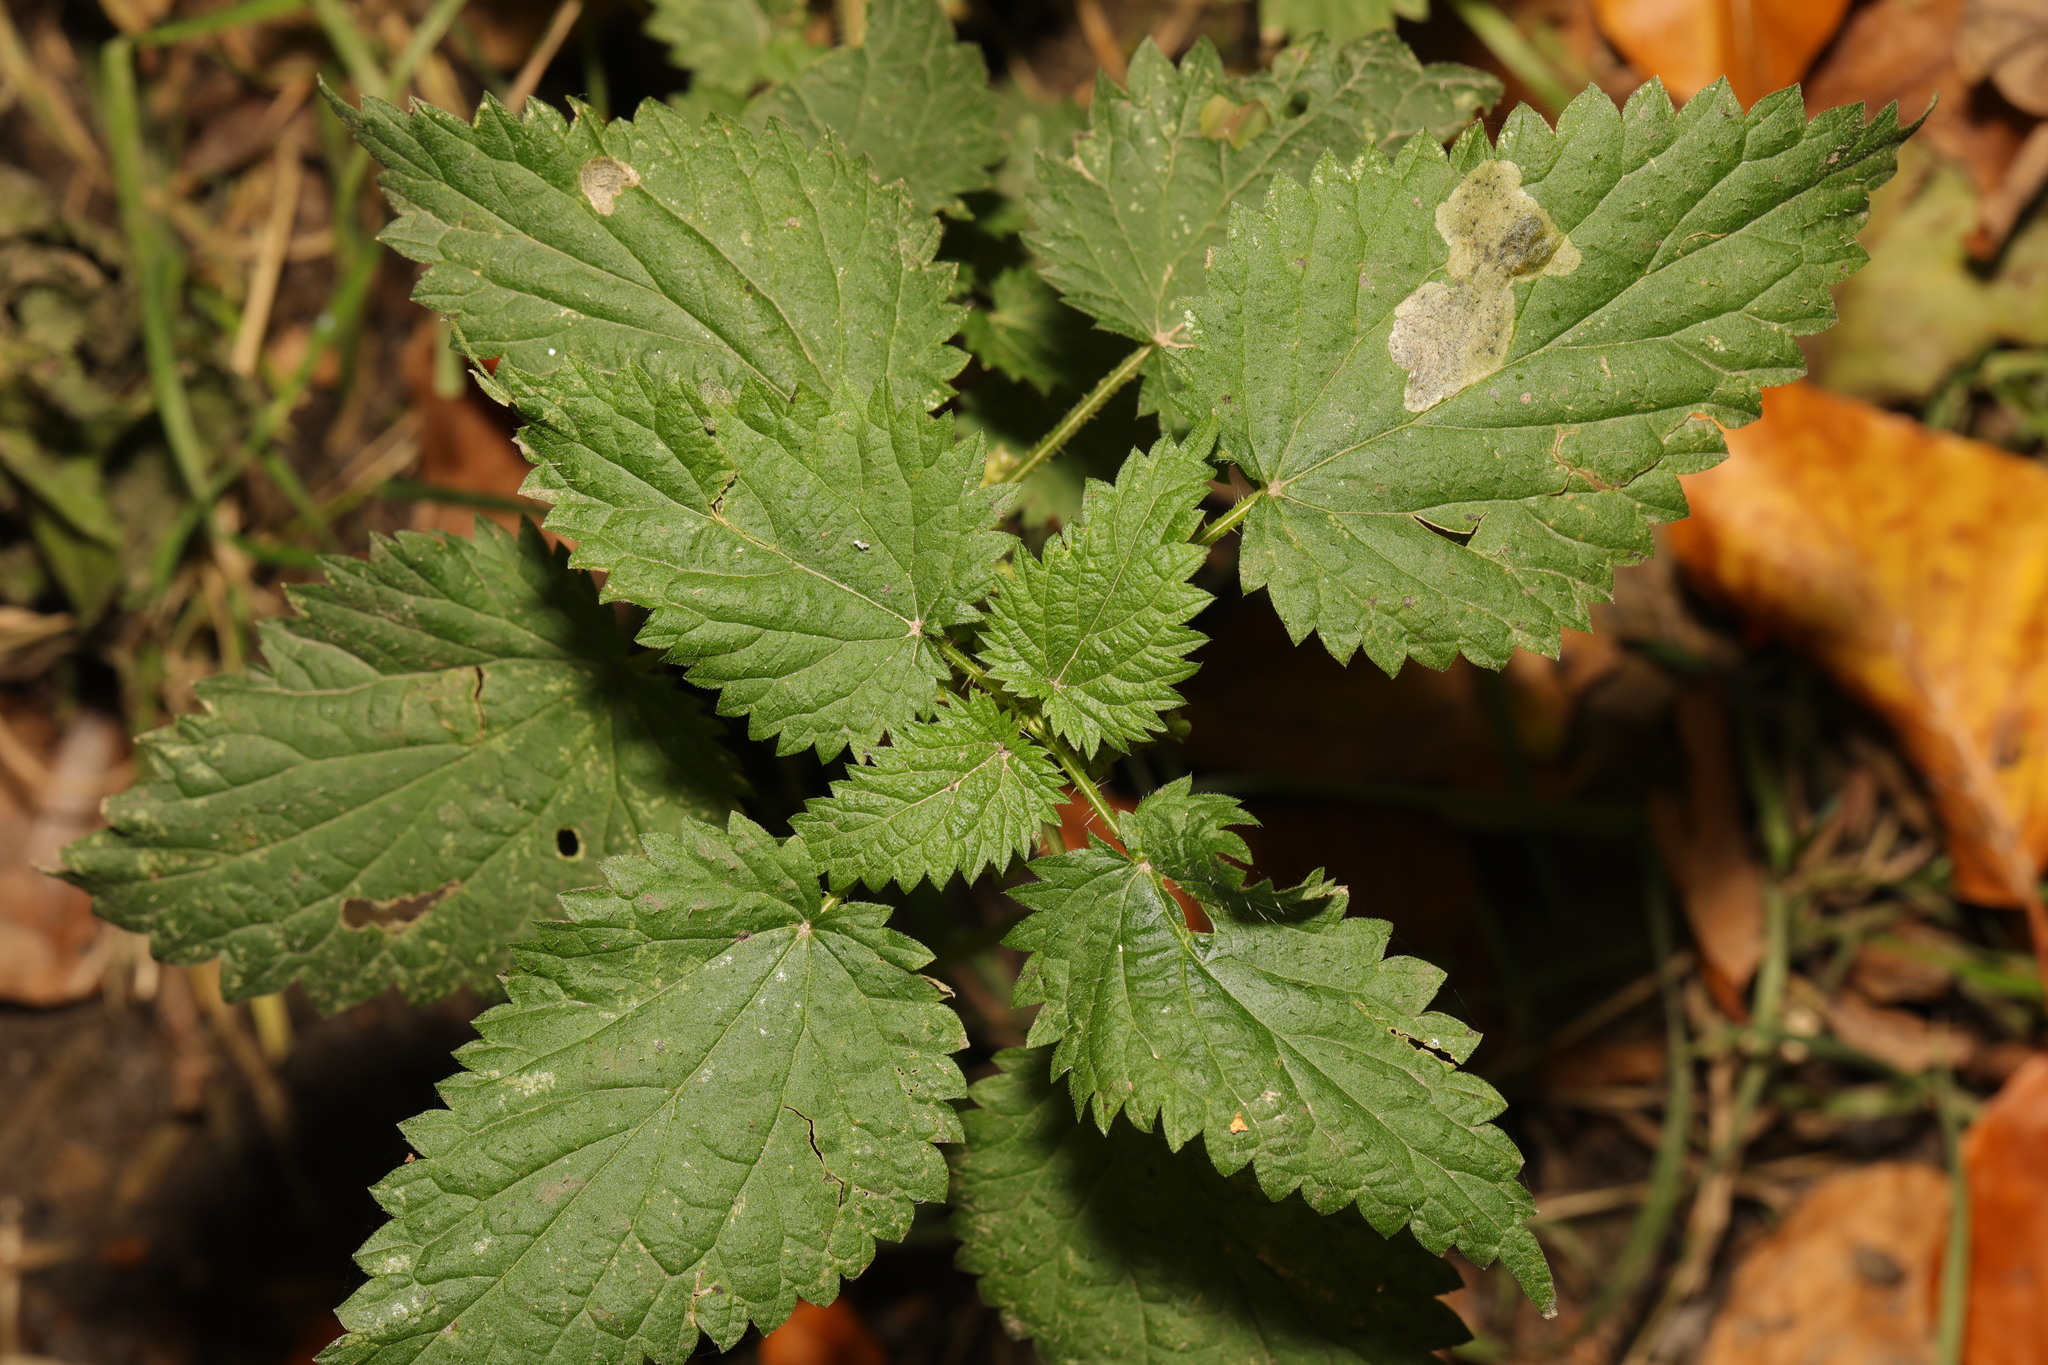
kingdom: Plantae
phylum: Tracheophyta
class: Magnoliopsida
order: Rosales
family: Urticaceae
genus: Urtica
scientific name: Urtica dioica
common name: Common nettle
